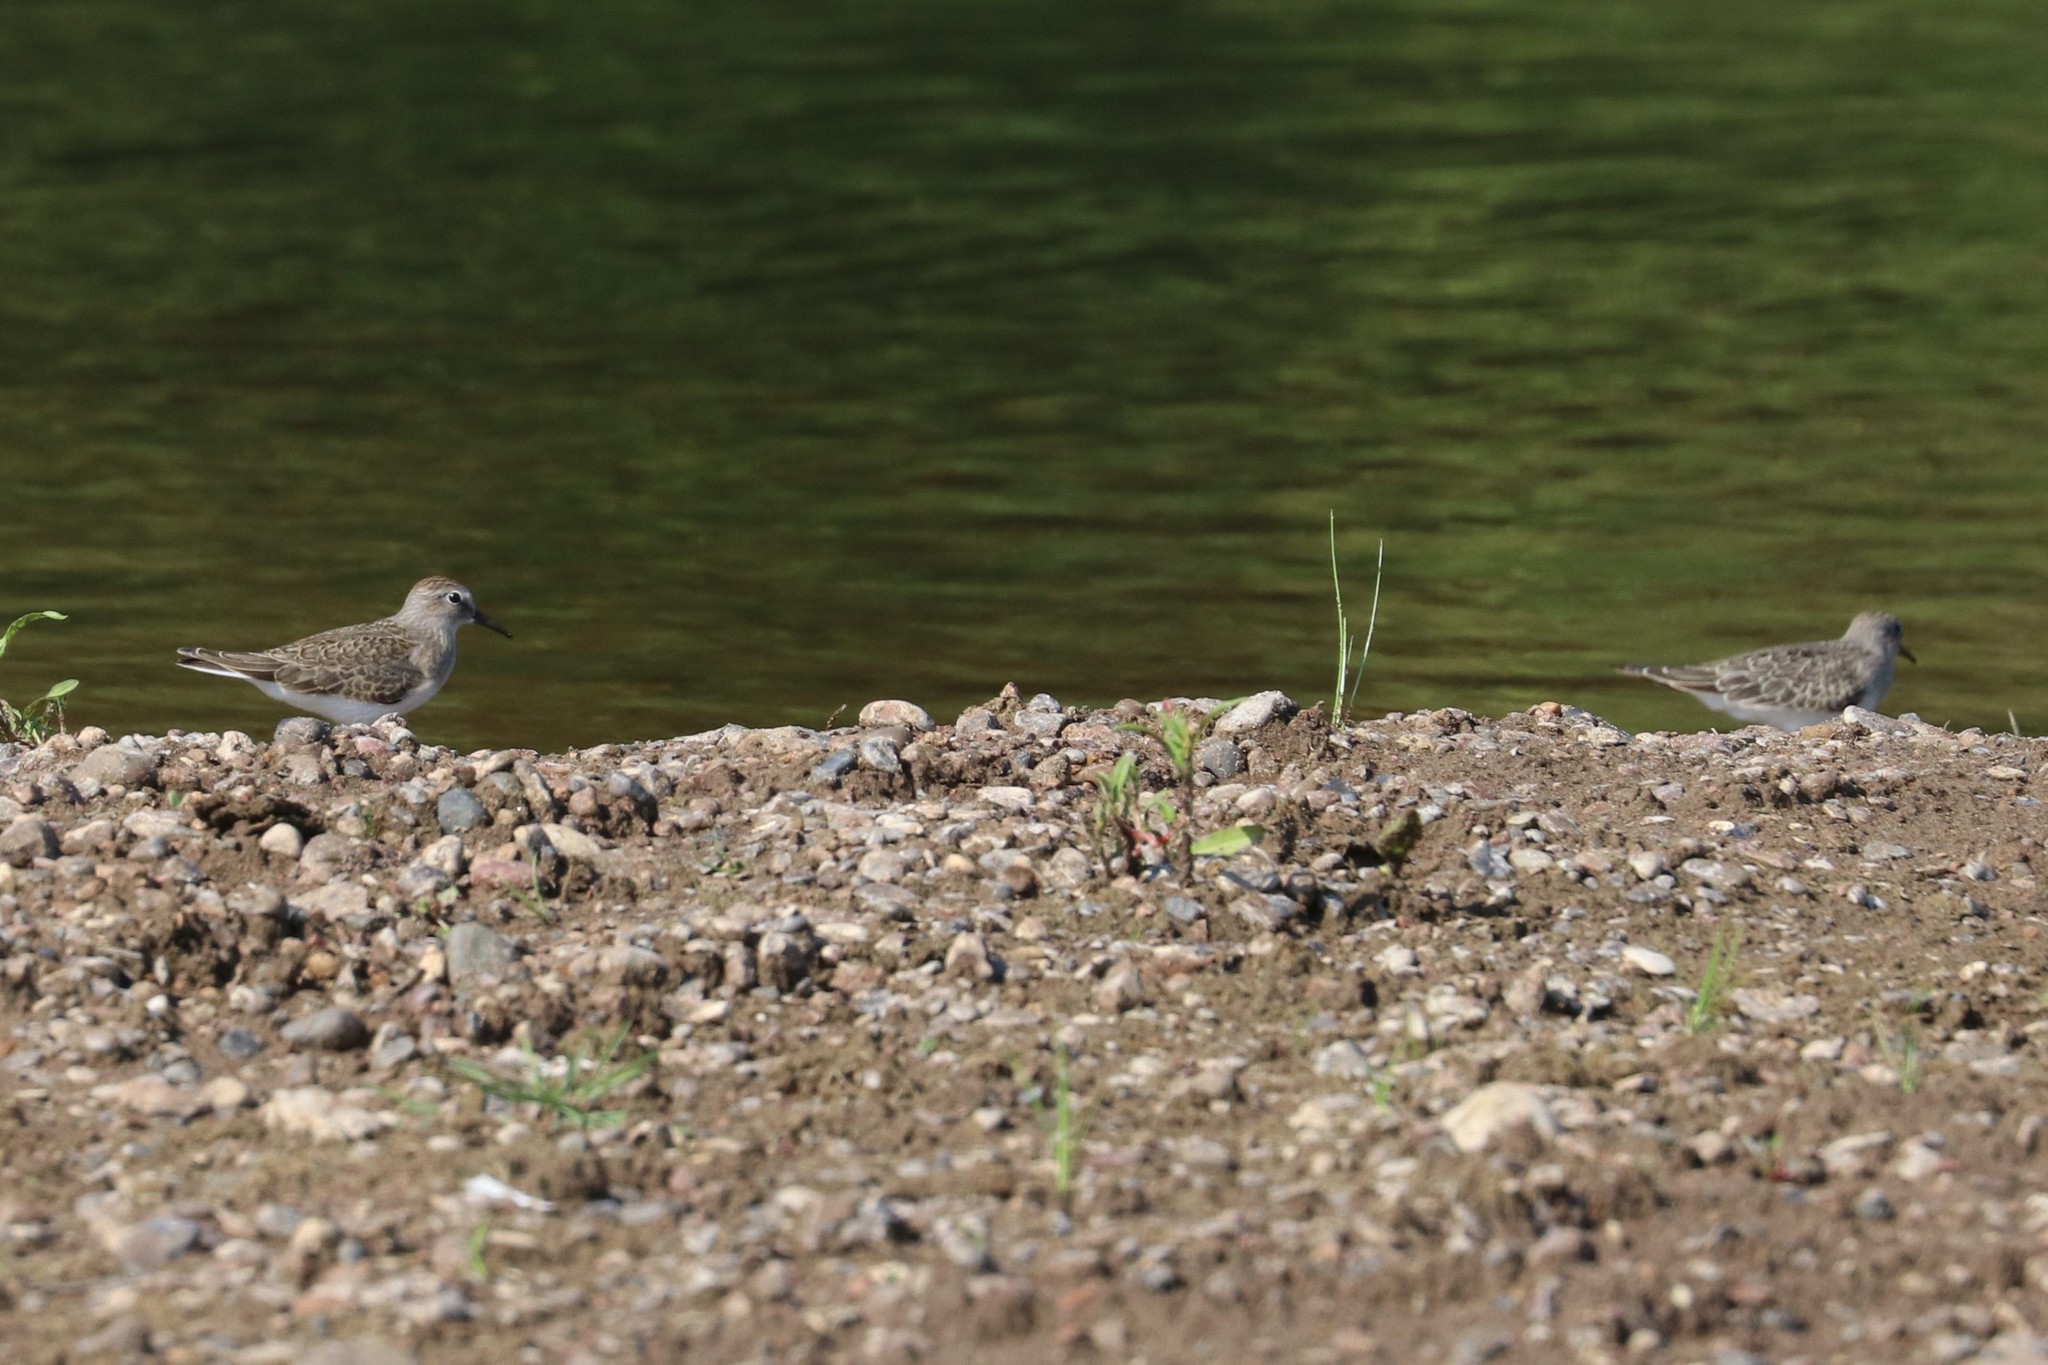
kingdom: Animalia
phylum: Chordata
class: Aves
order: Charadriiformes
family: Scolopacidae
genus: Calidris
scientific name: Calidris temminckii
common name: Temminck's stint
